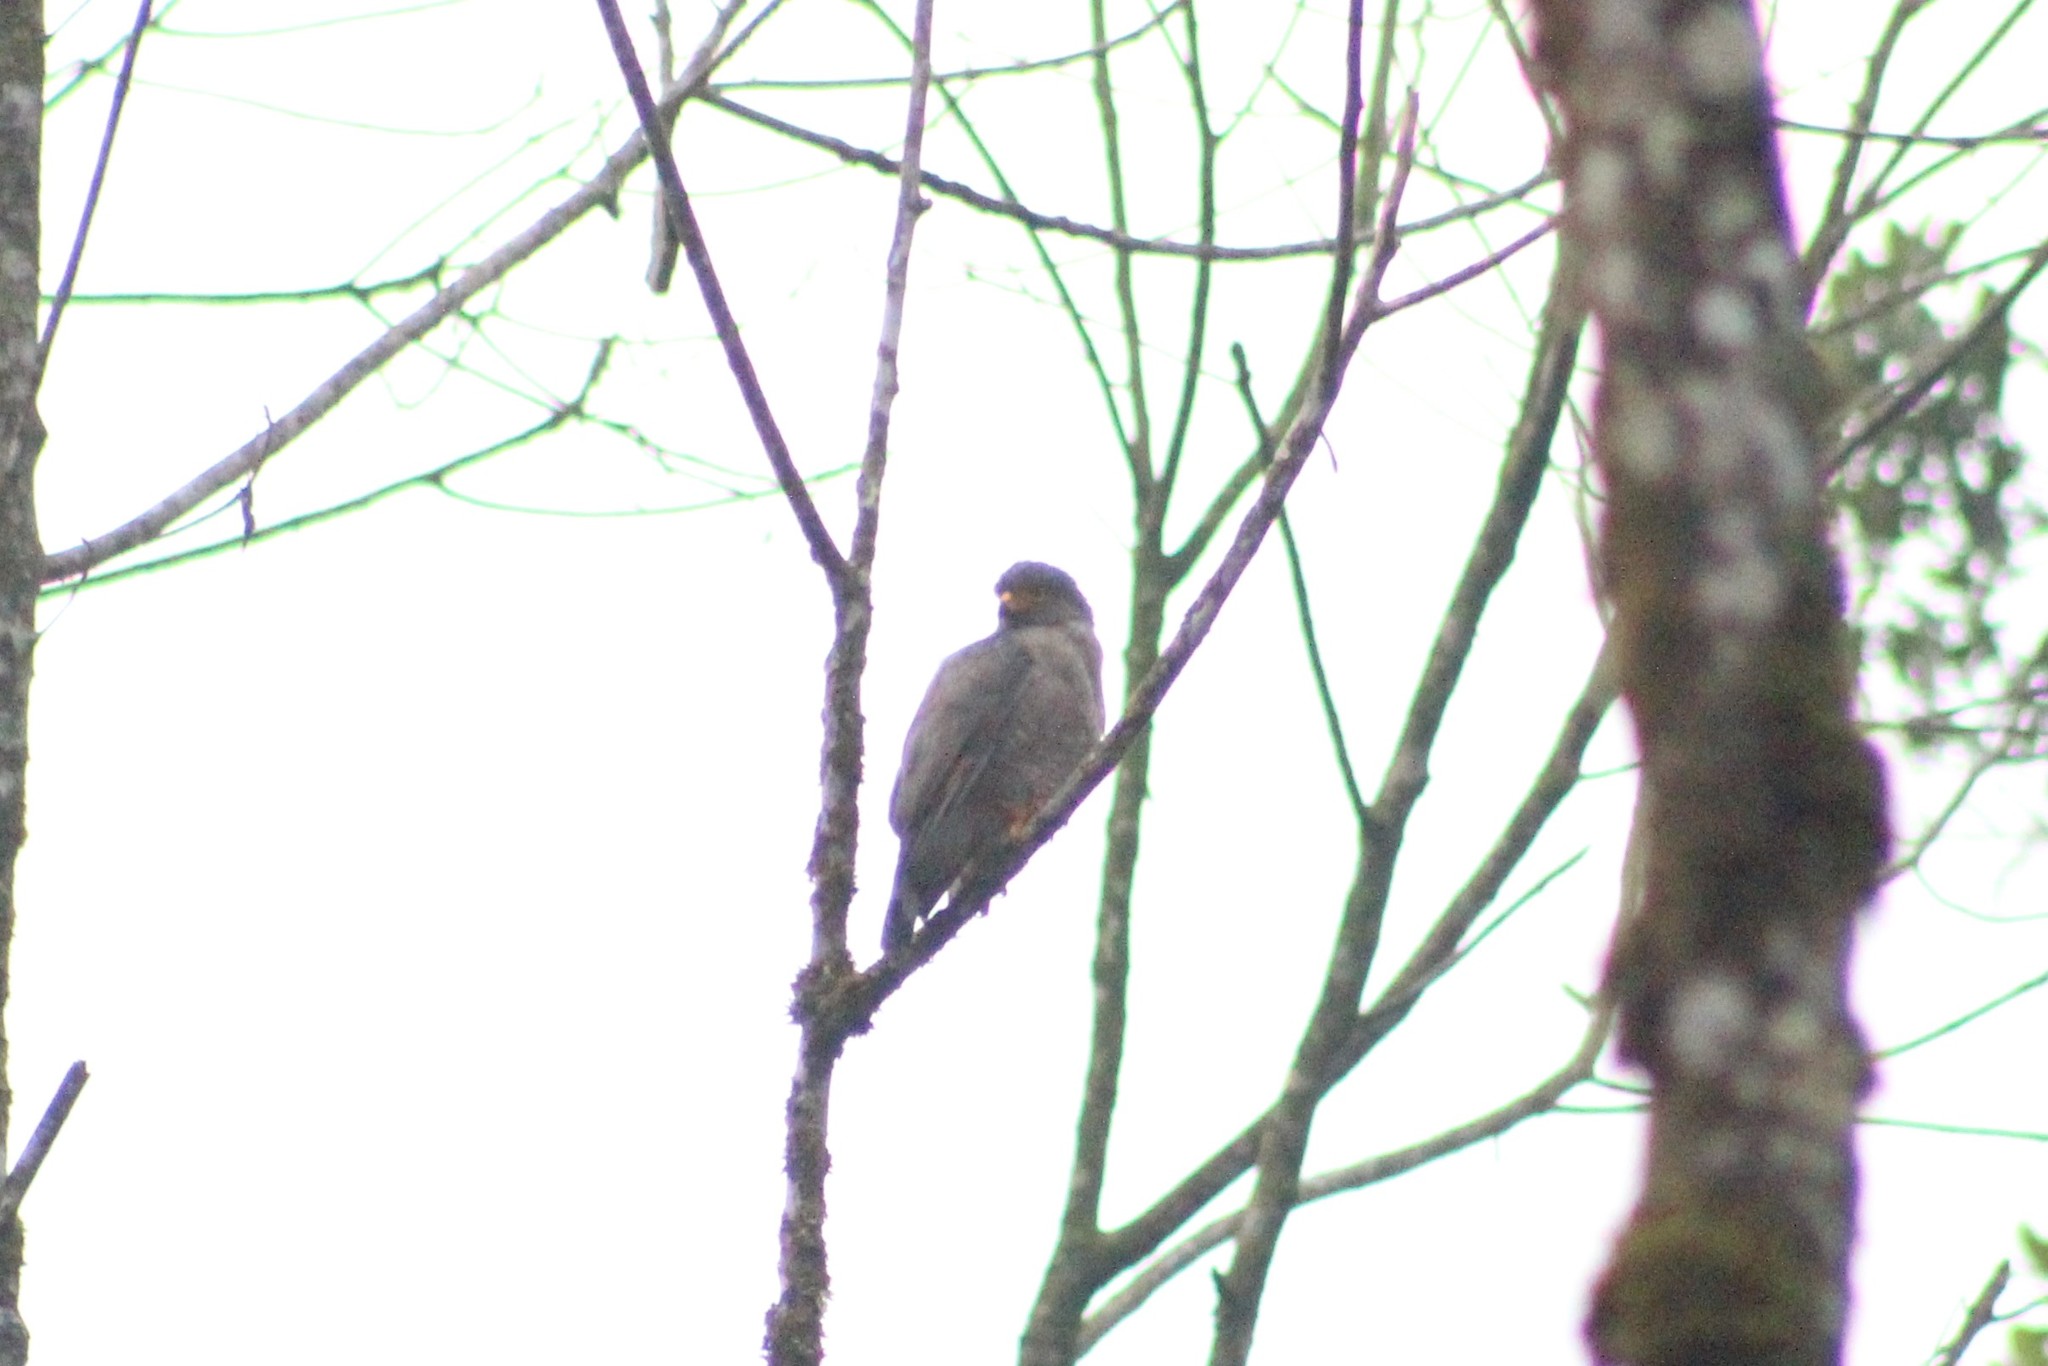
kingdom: Animalia
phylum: Chordata
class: Aves
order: Accipitriformes
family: Accipitridae
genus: Rupornis
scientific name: Rupornis magnirostris
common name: Roadside hawk
